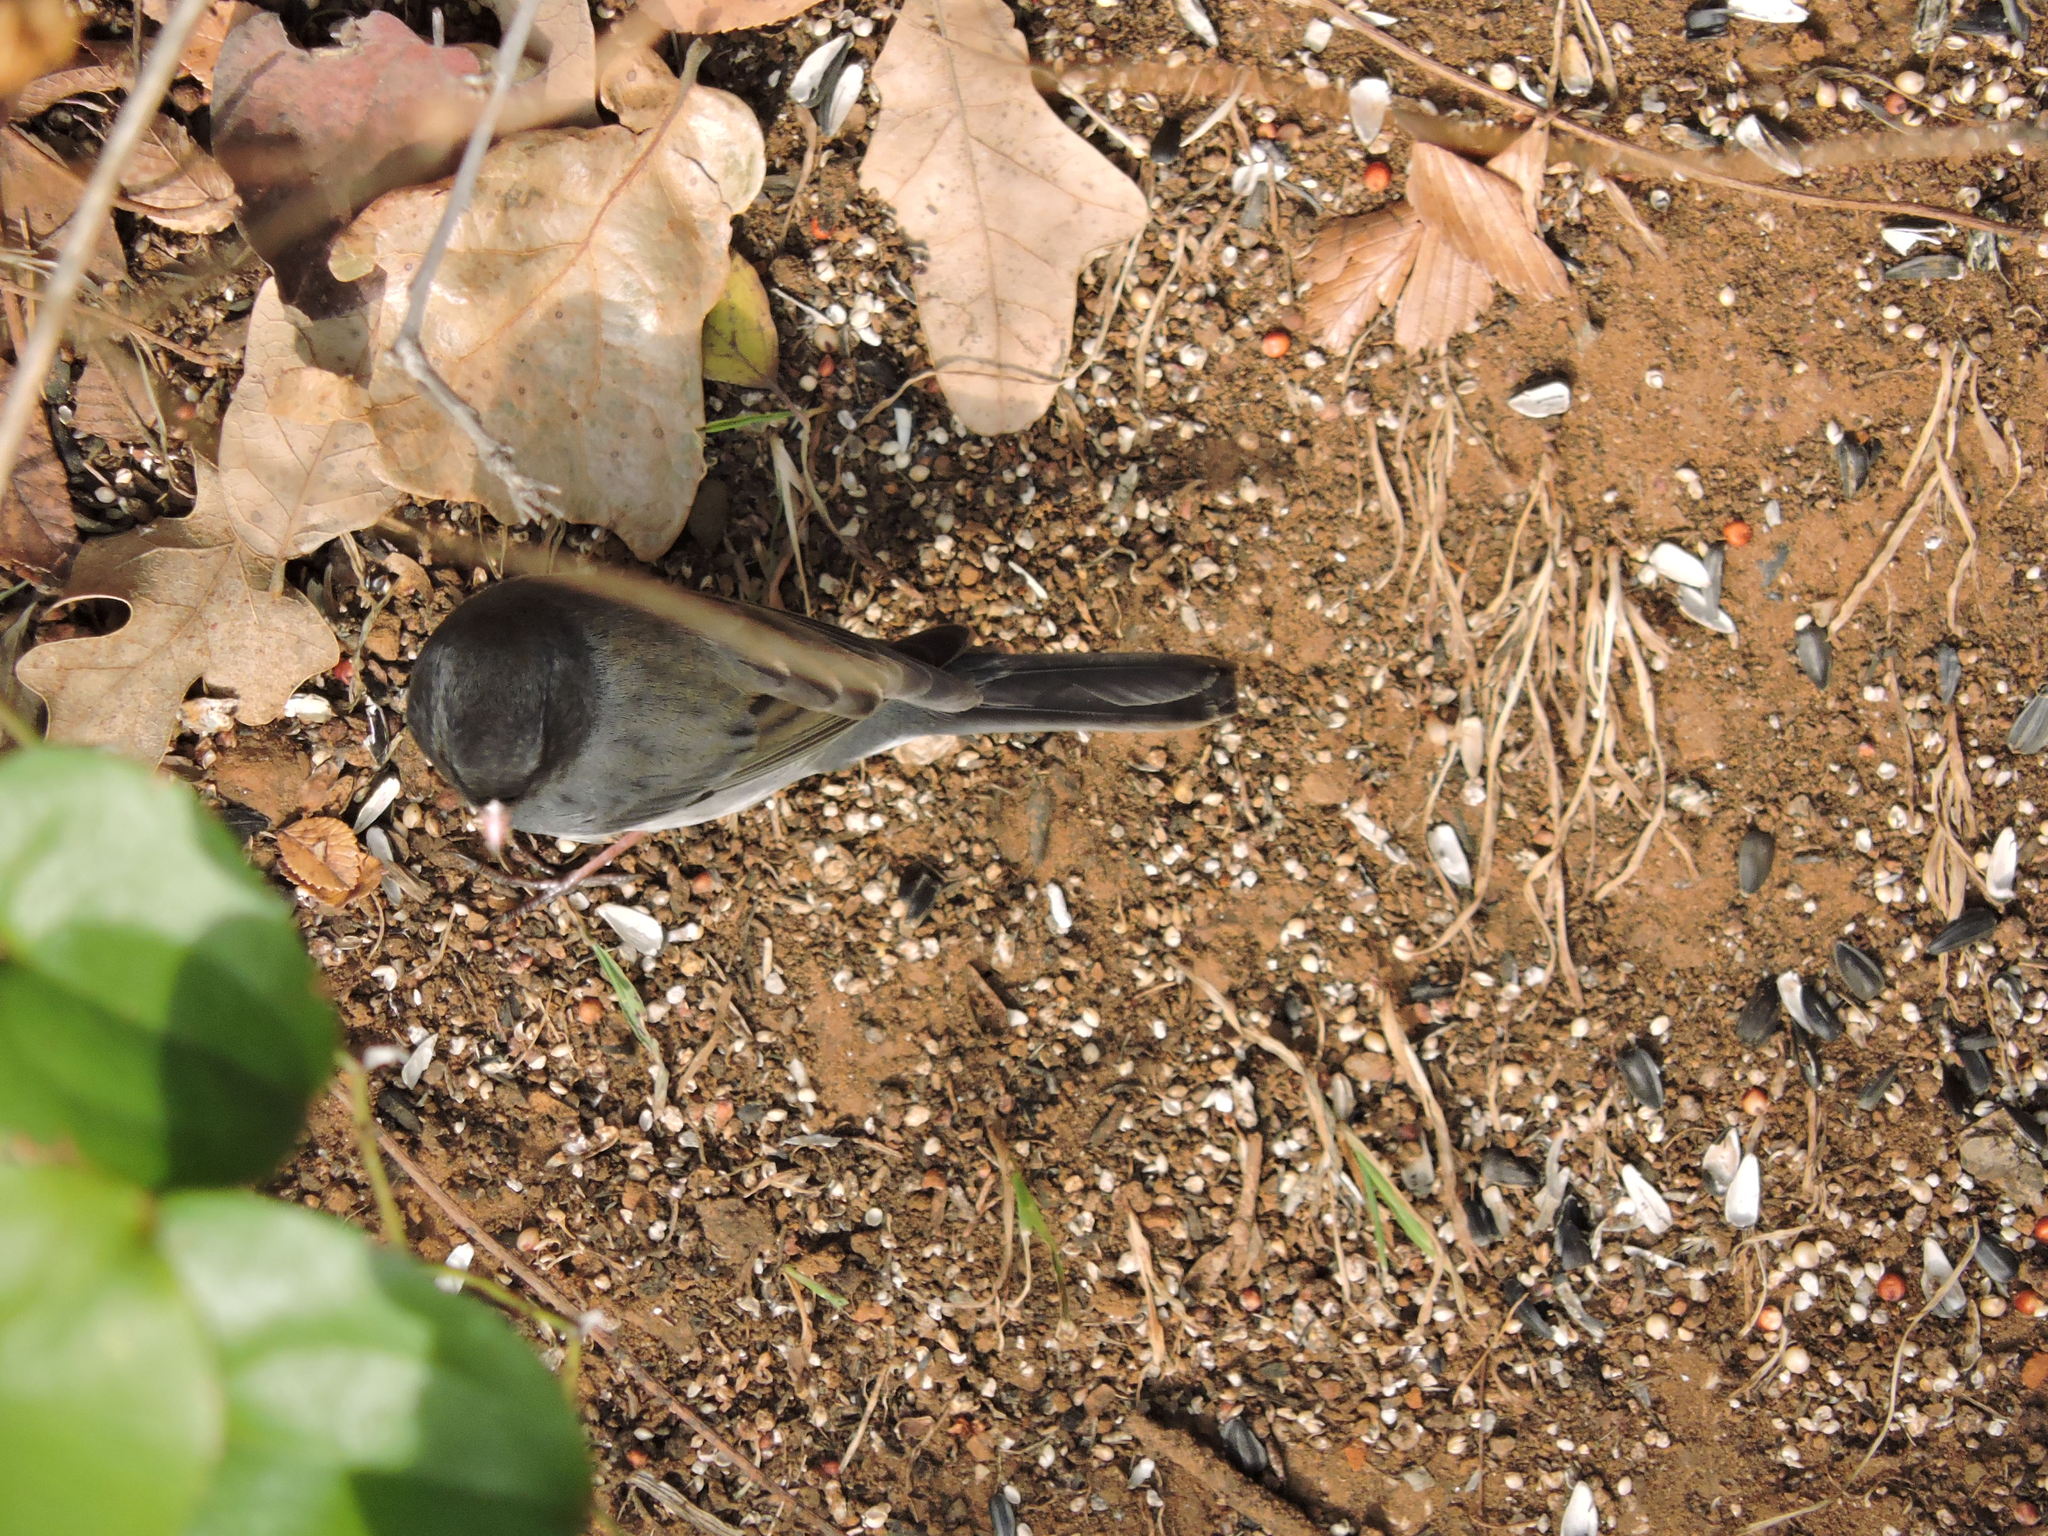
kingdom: Animalia
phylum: Chordata
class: Aves
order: Passeriformes
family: Passerellidae
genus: Junco
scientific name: Junco hyemalis
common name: Dark-eyed junco
